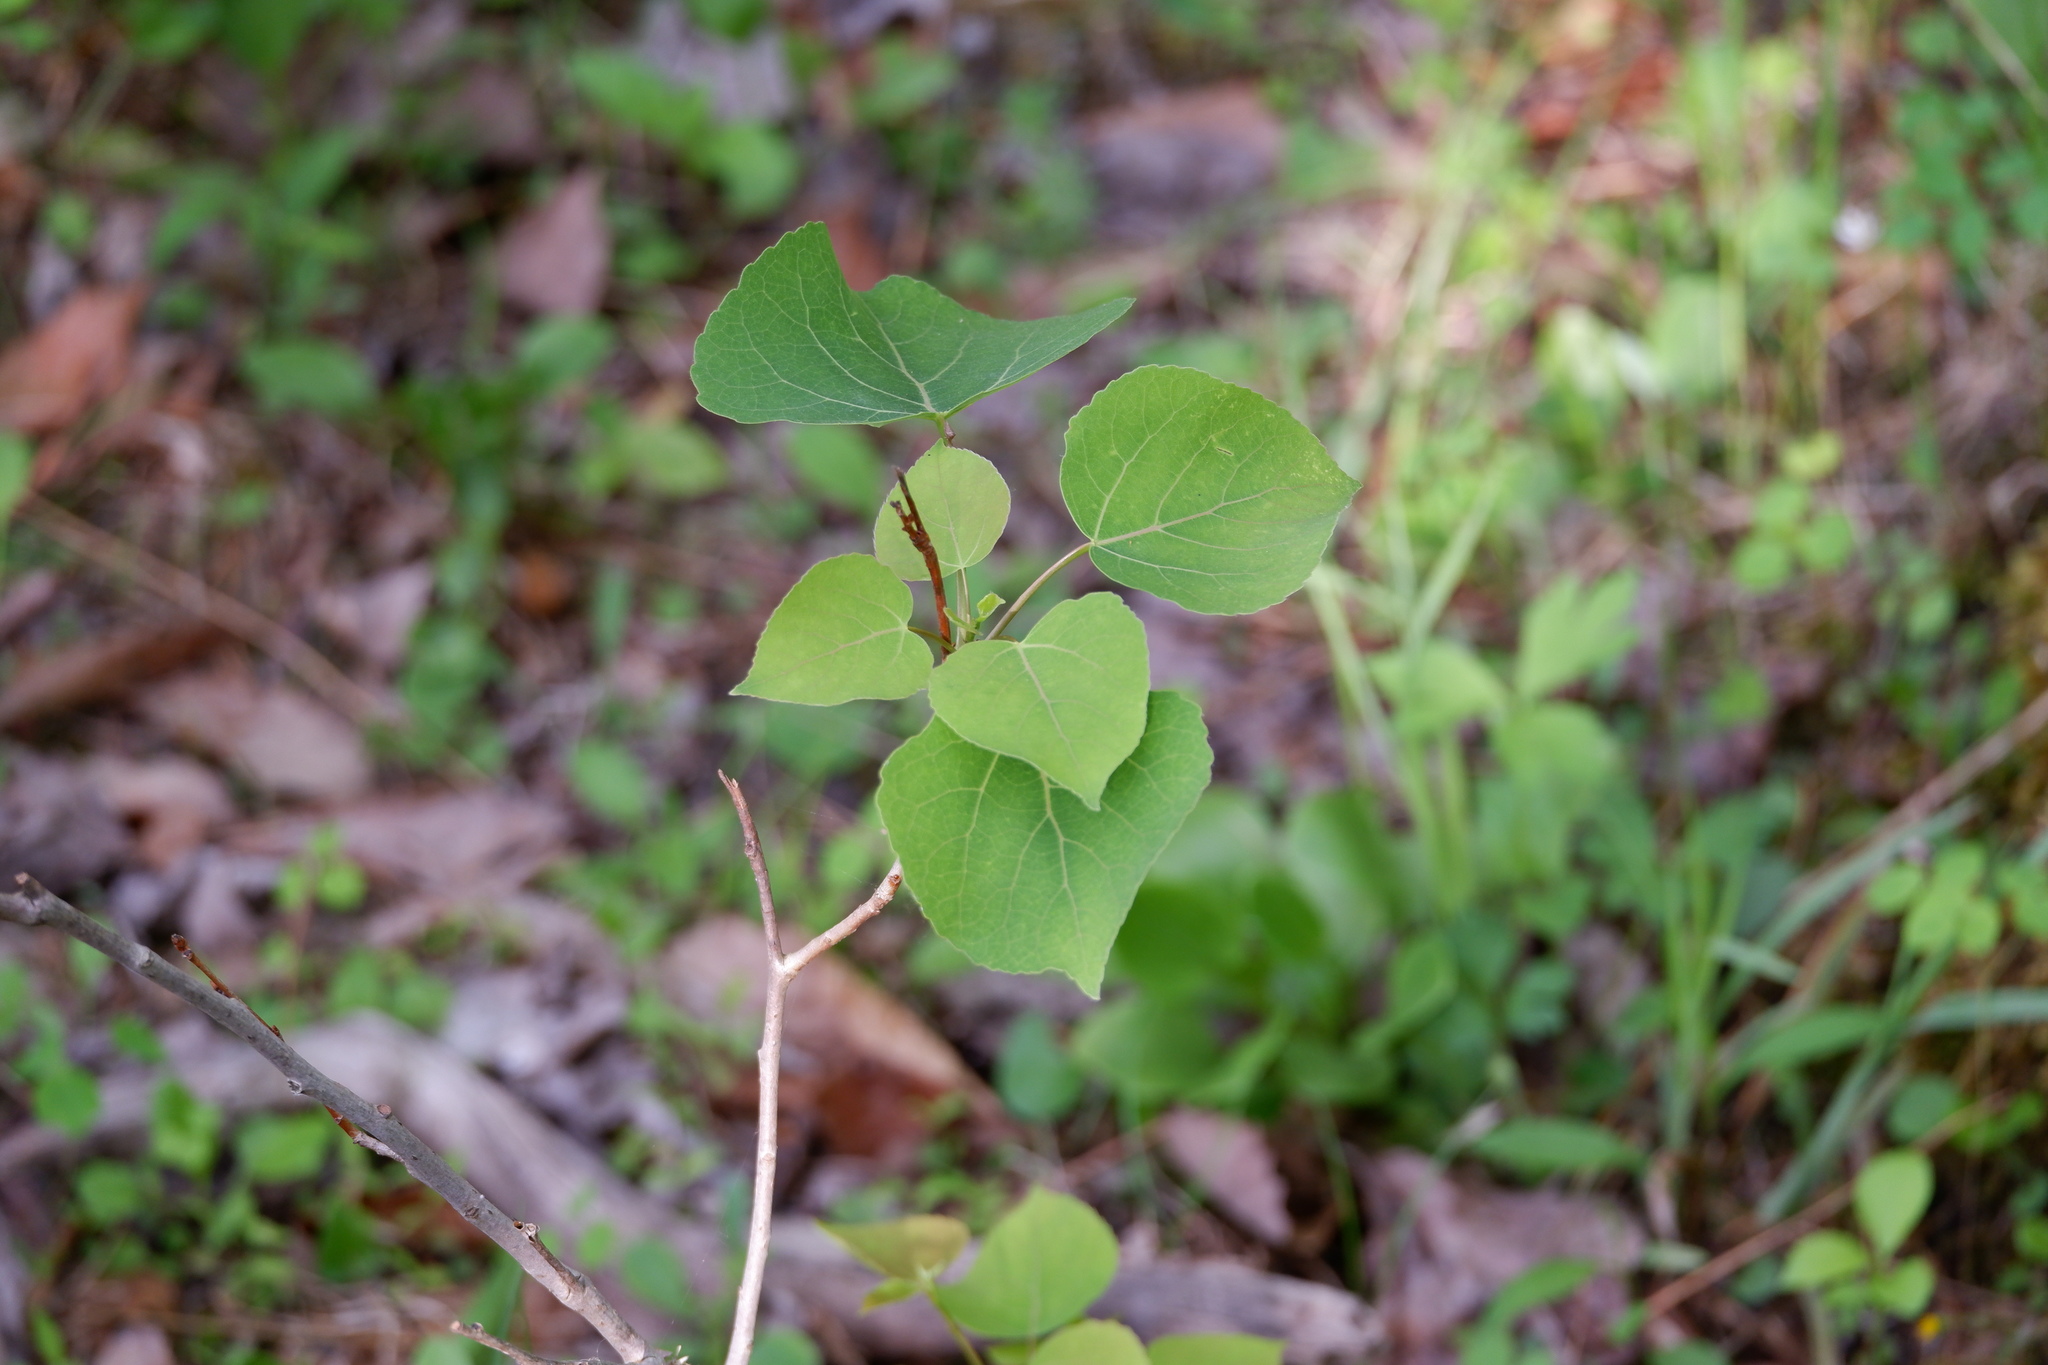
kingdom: Plantae
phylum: Tracheophyta
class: Magnoliopsida
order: Malpighiales
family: Salicaceae
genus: Populus
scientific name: Populus tremuloides
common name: Quaking aspen
